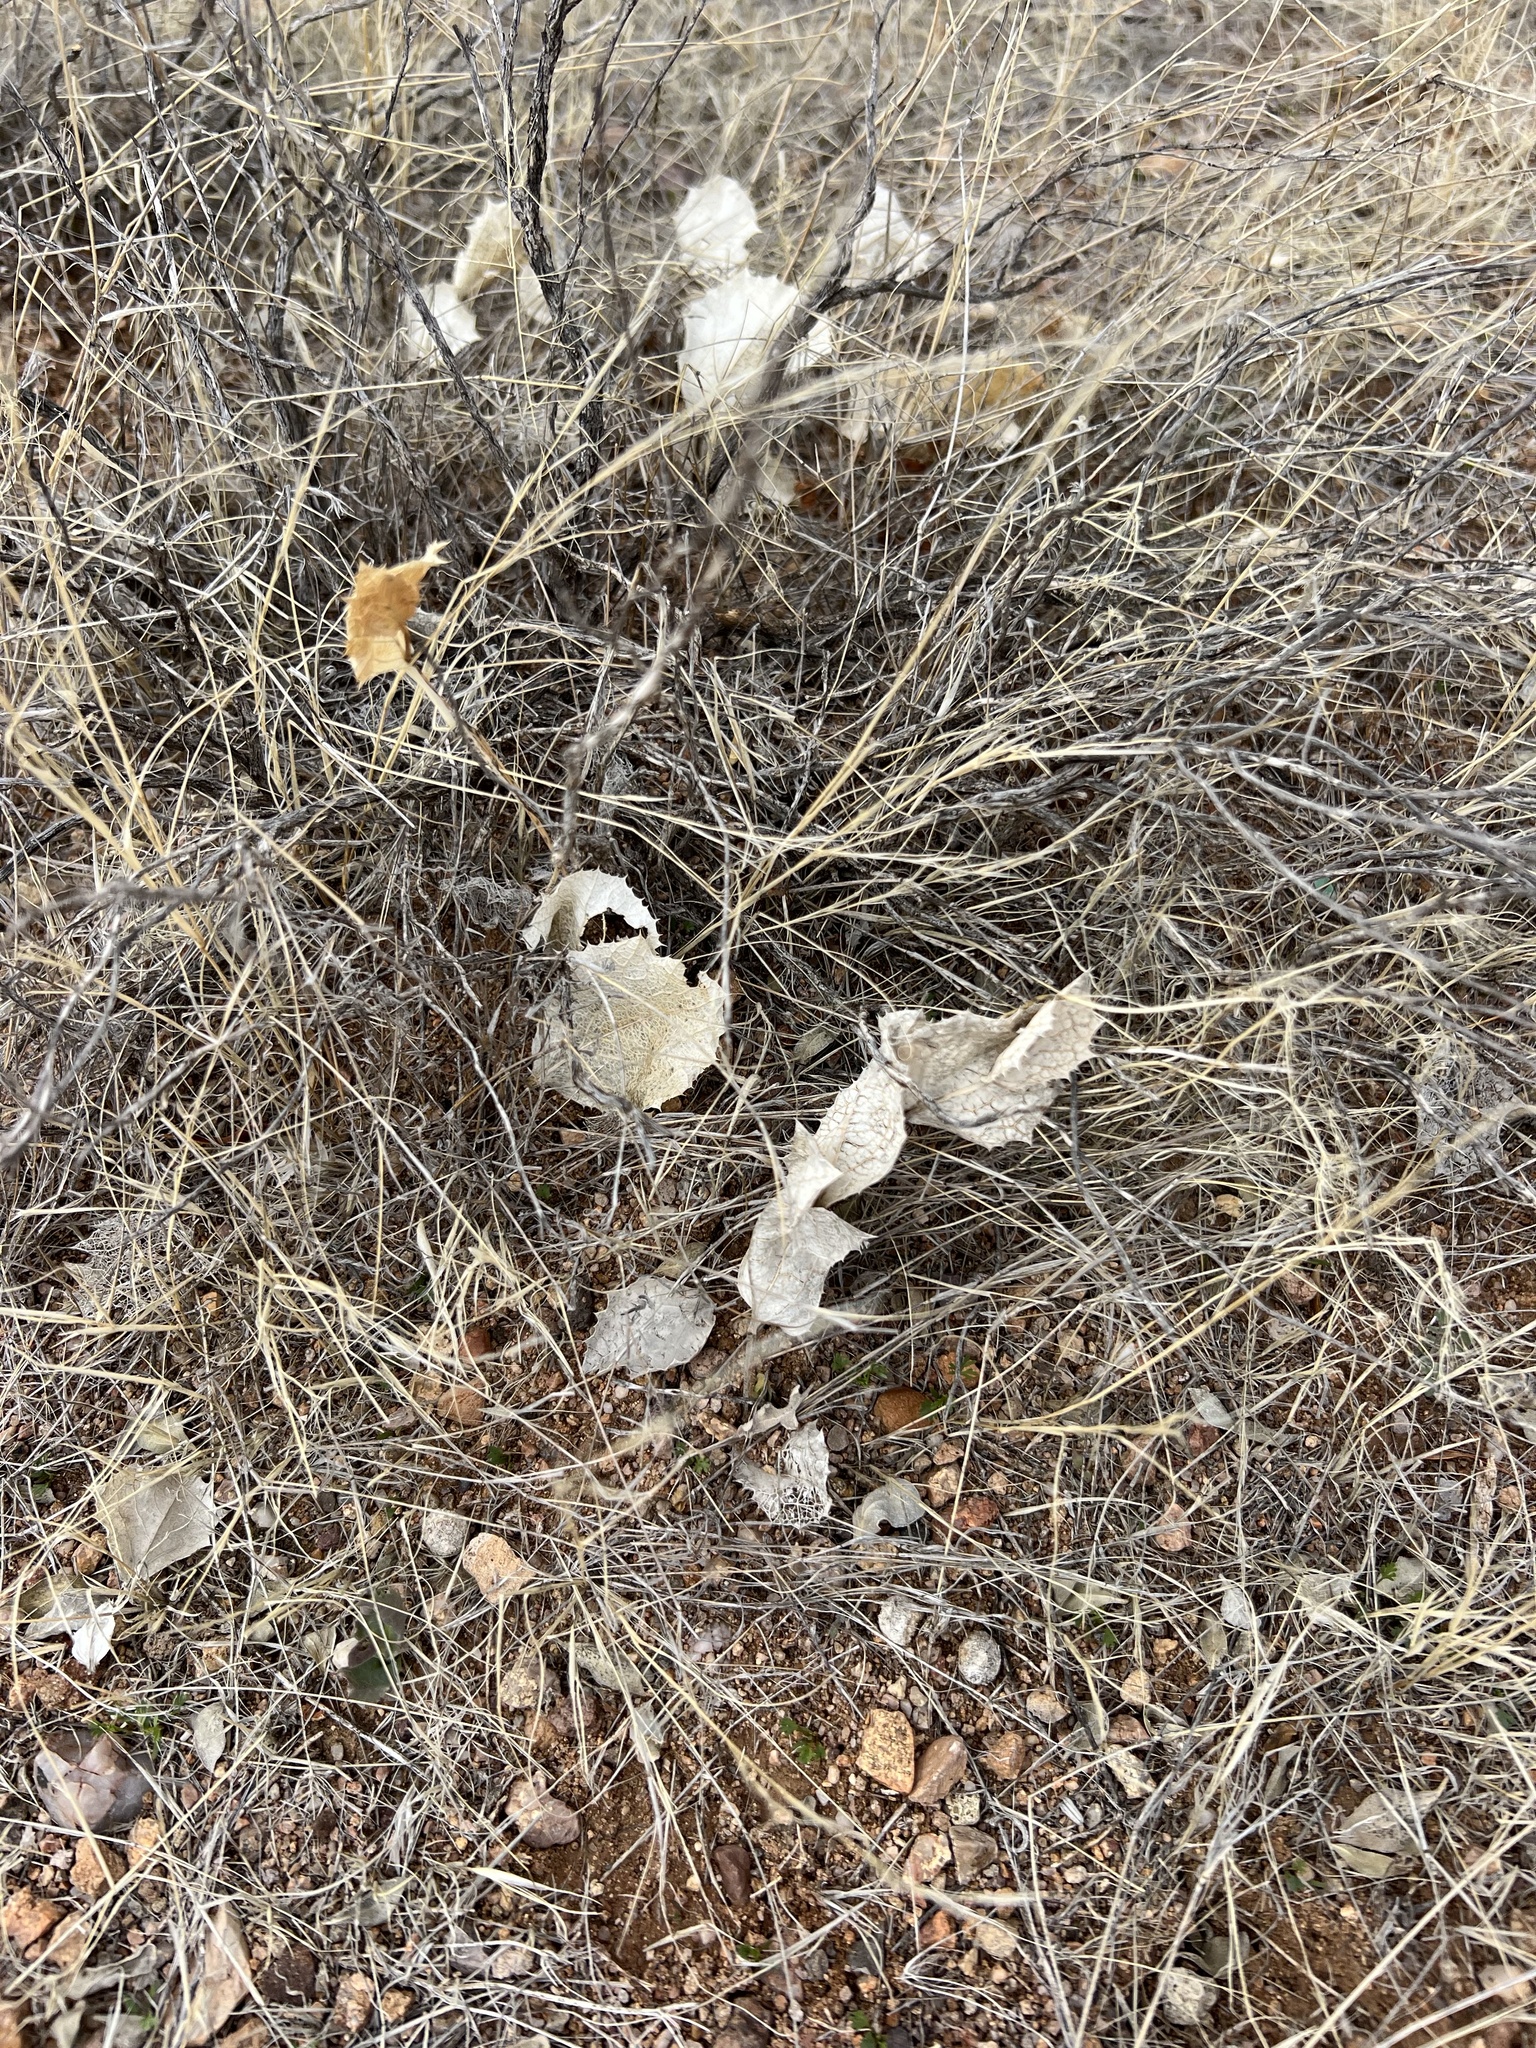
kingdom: Plantae
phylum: Tracheophyta
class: Magnoliopsida
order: Asterales
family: Asteraceae
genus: Acourtia
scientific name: Acourtia nana
